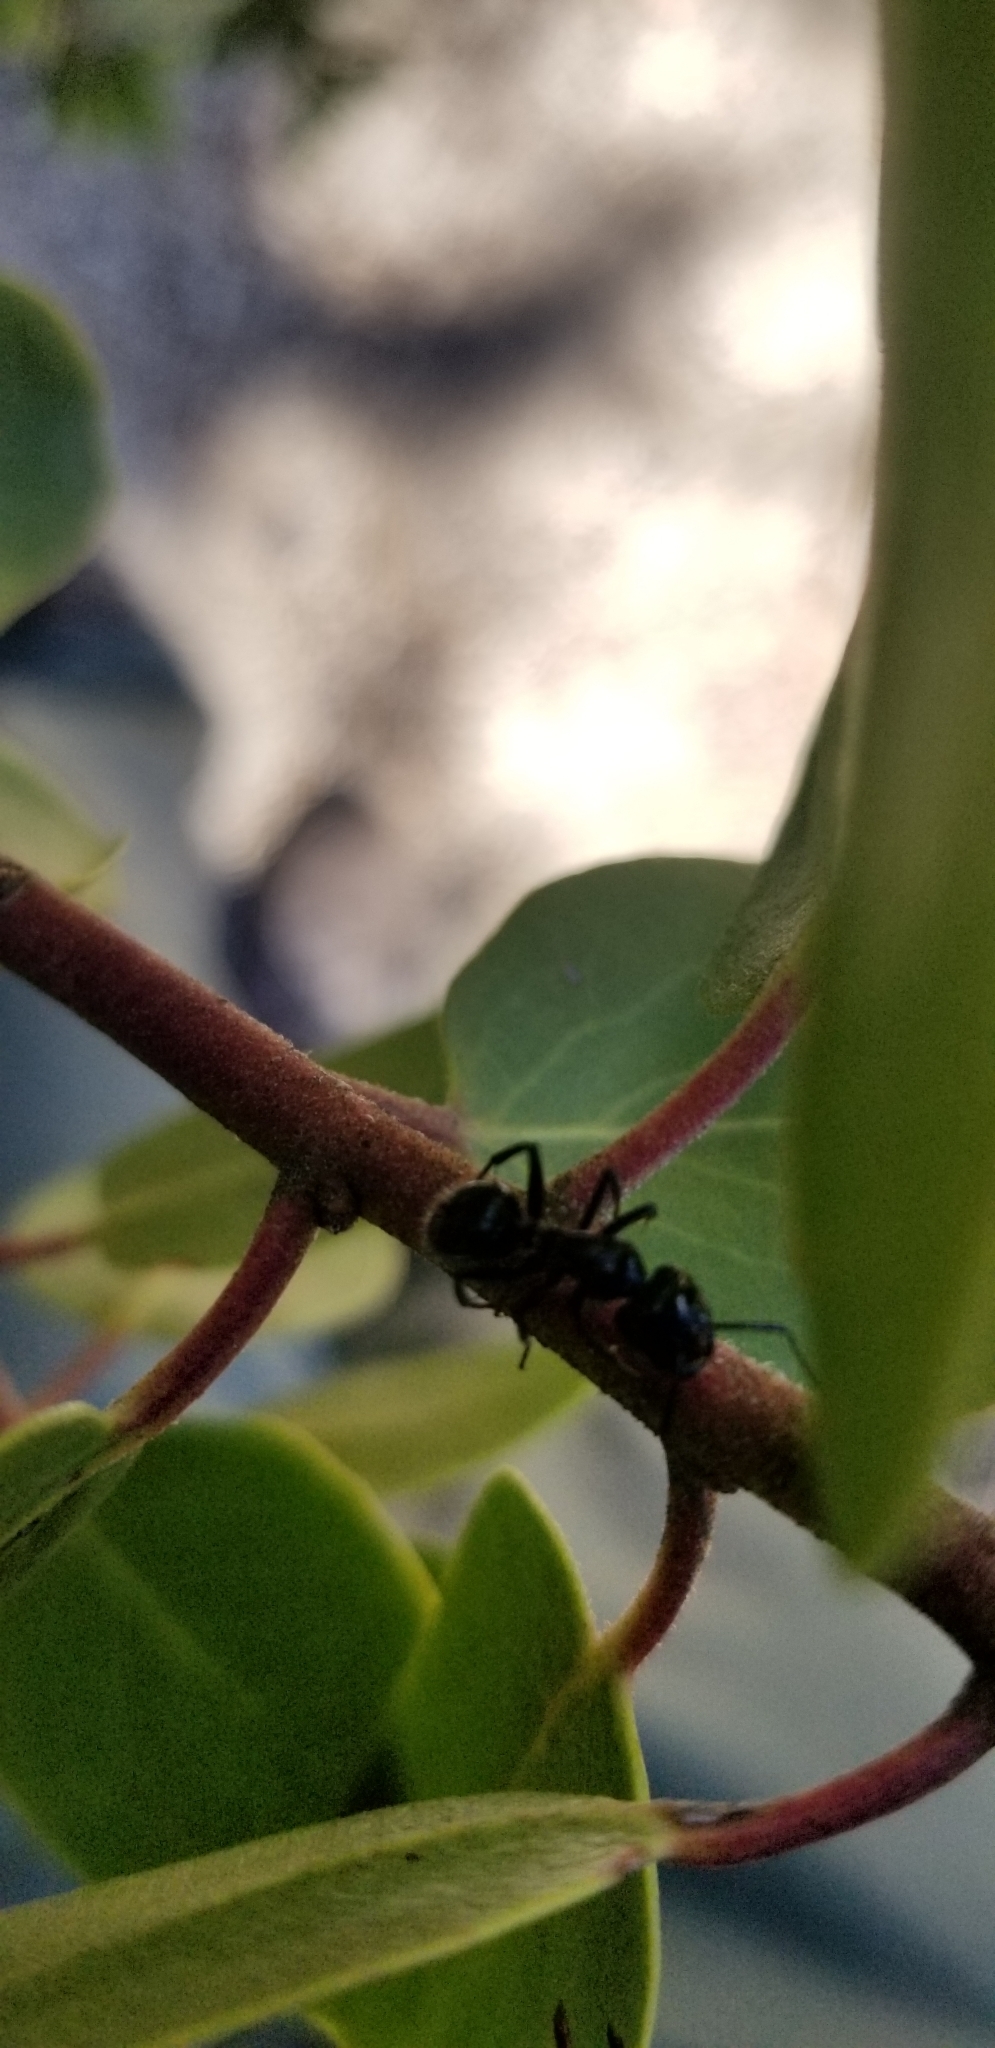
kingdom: Animalia
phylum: Arthropoda
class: Insecta
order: Hymenoptera
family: Formicidae
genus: Camponotus
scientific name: Camponotus
